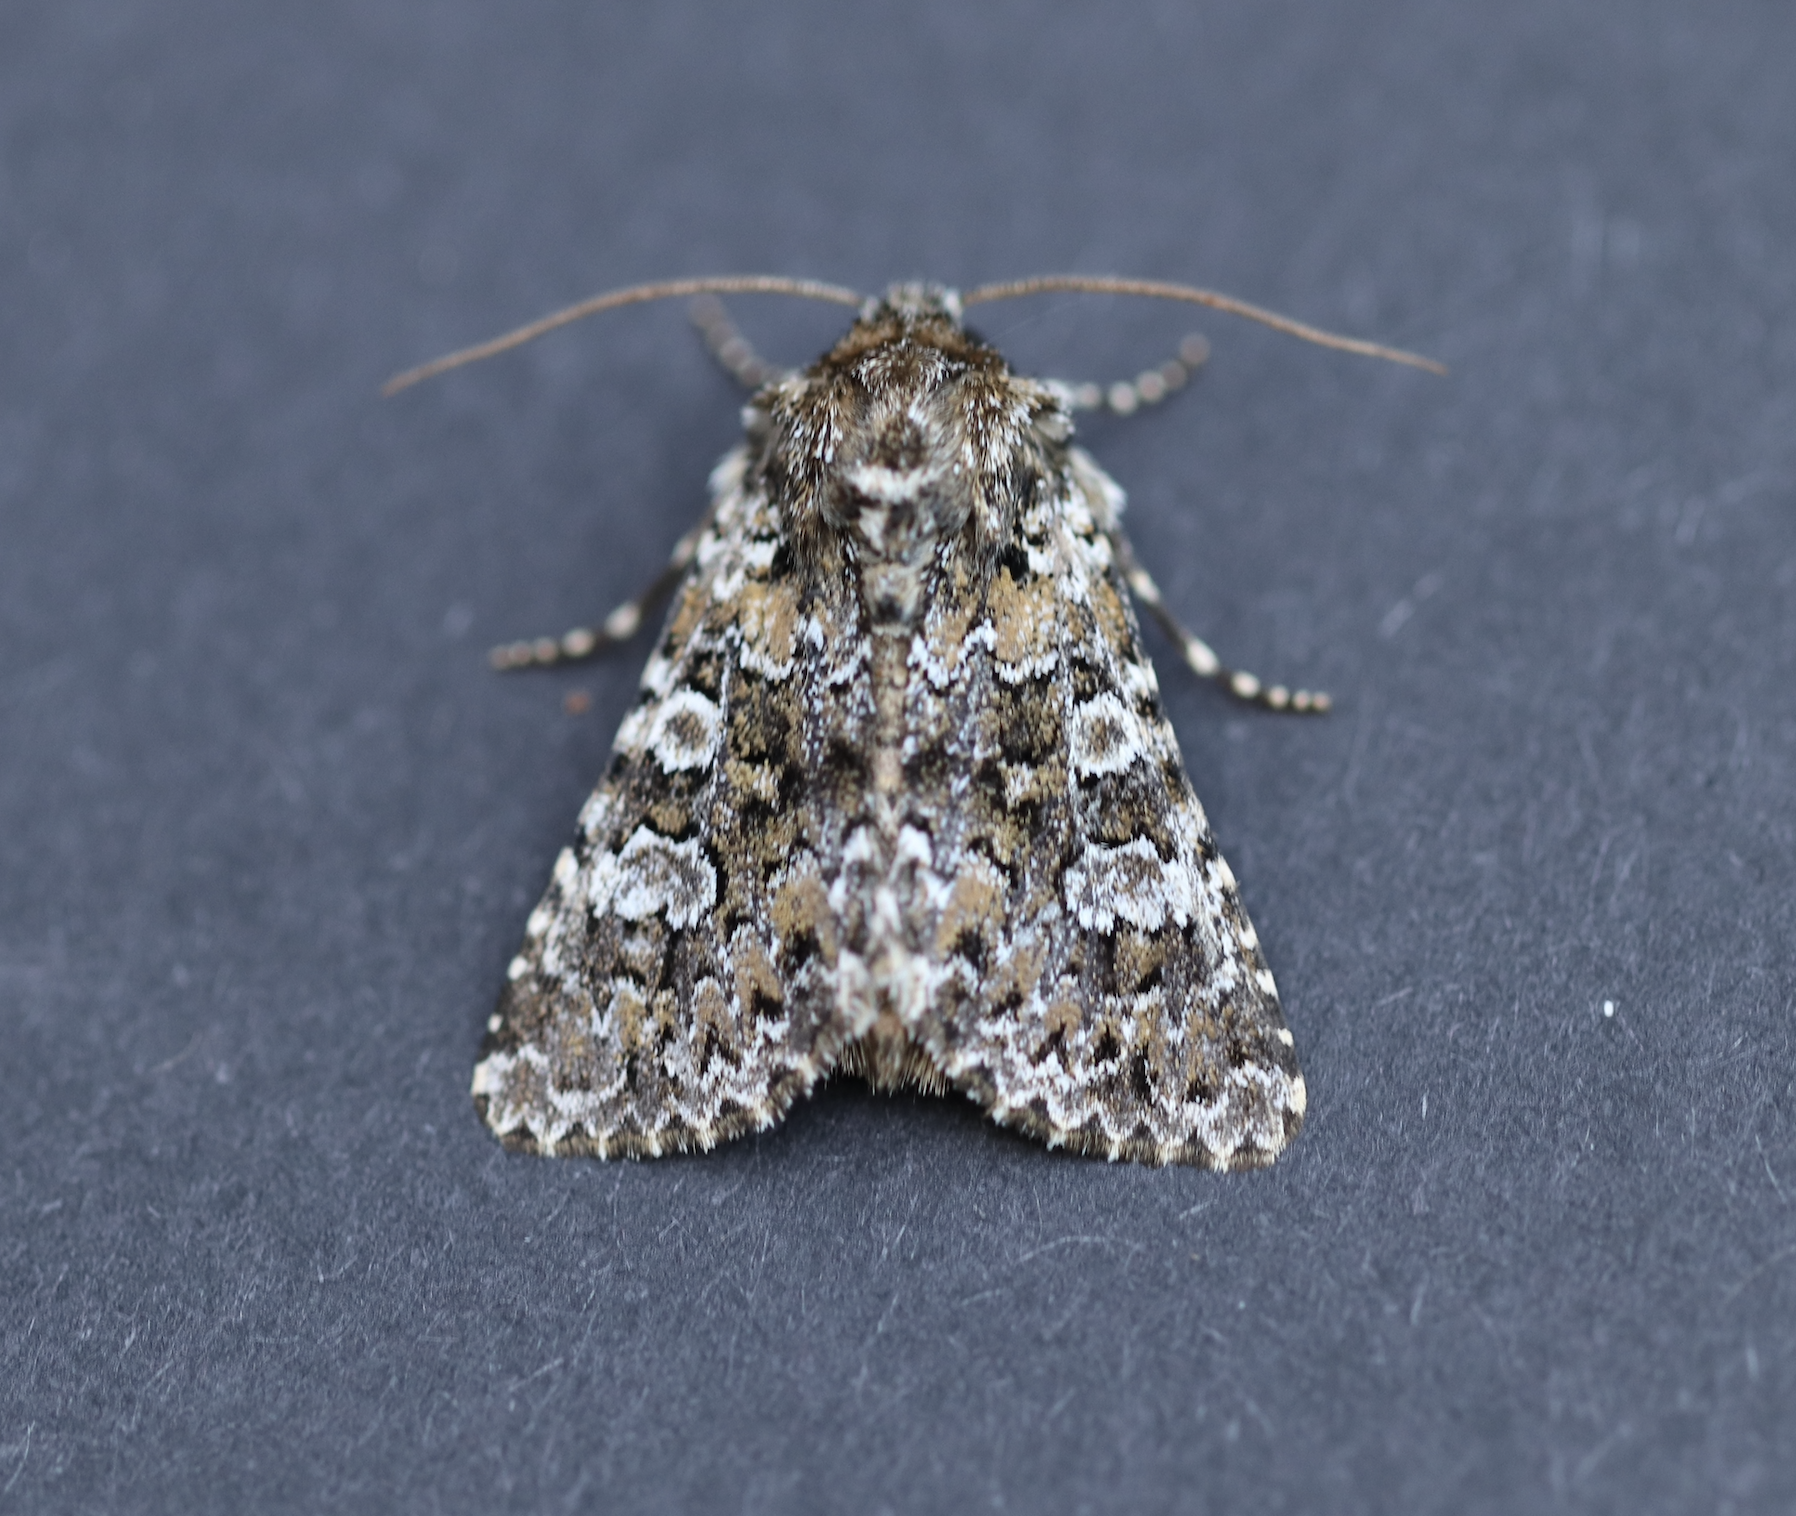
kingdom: Animalia
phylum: Arthropoda
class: Insecta
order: Lepidoptera
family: Noctuidae
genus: Hadena
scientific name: Hadena magnolii
